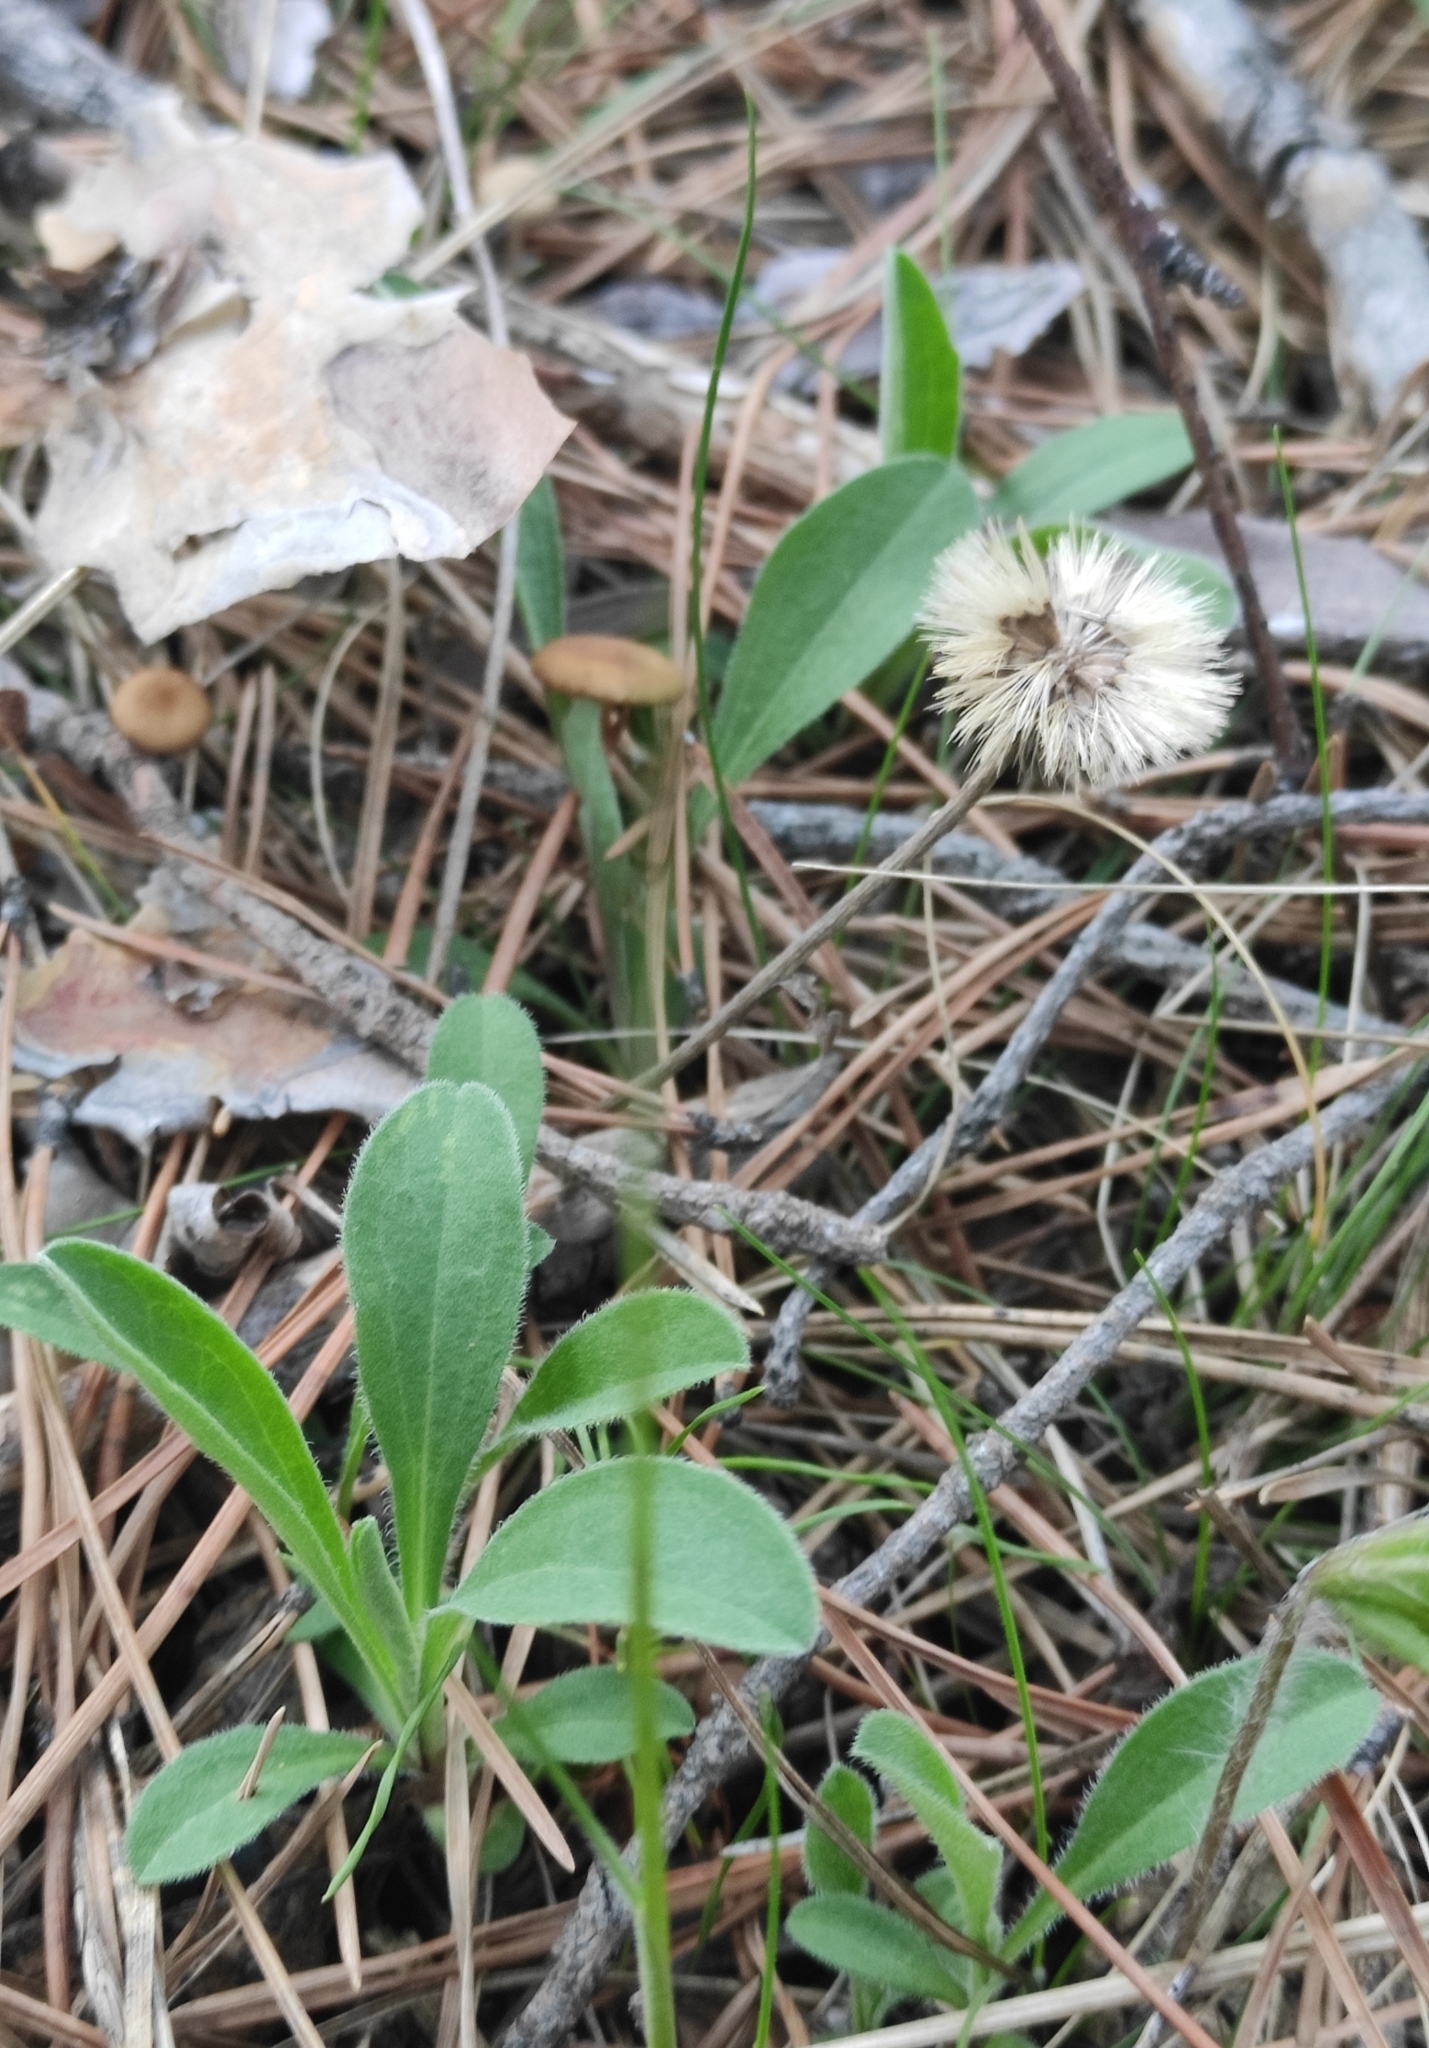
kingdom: Plantae
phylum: Tracheophyta
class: Magnoliopsida
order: Asterales
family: Asteraceae
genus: Aster
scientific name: Aster alpinus
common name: Alpine aster
